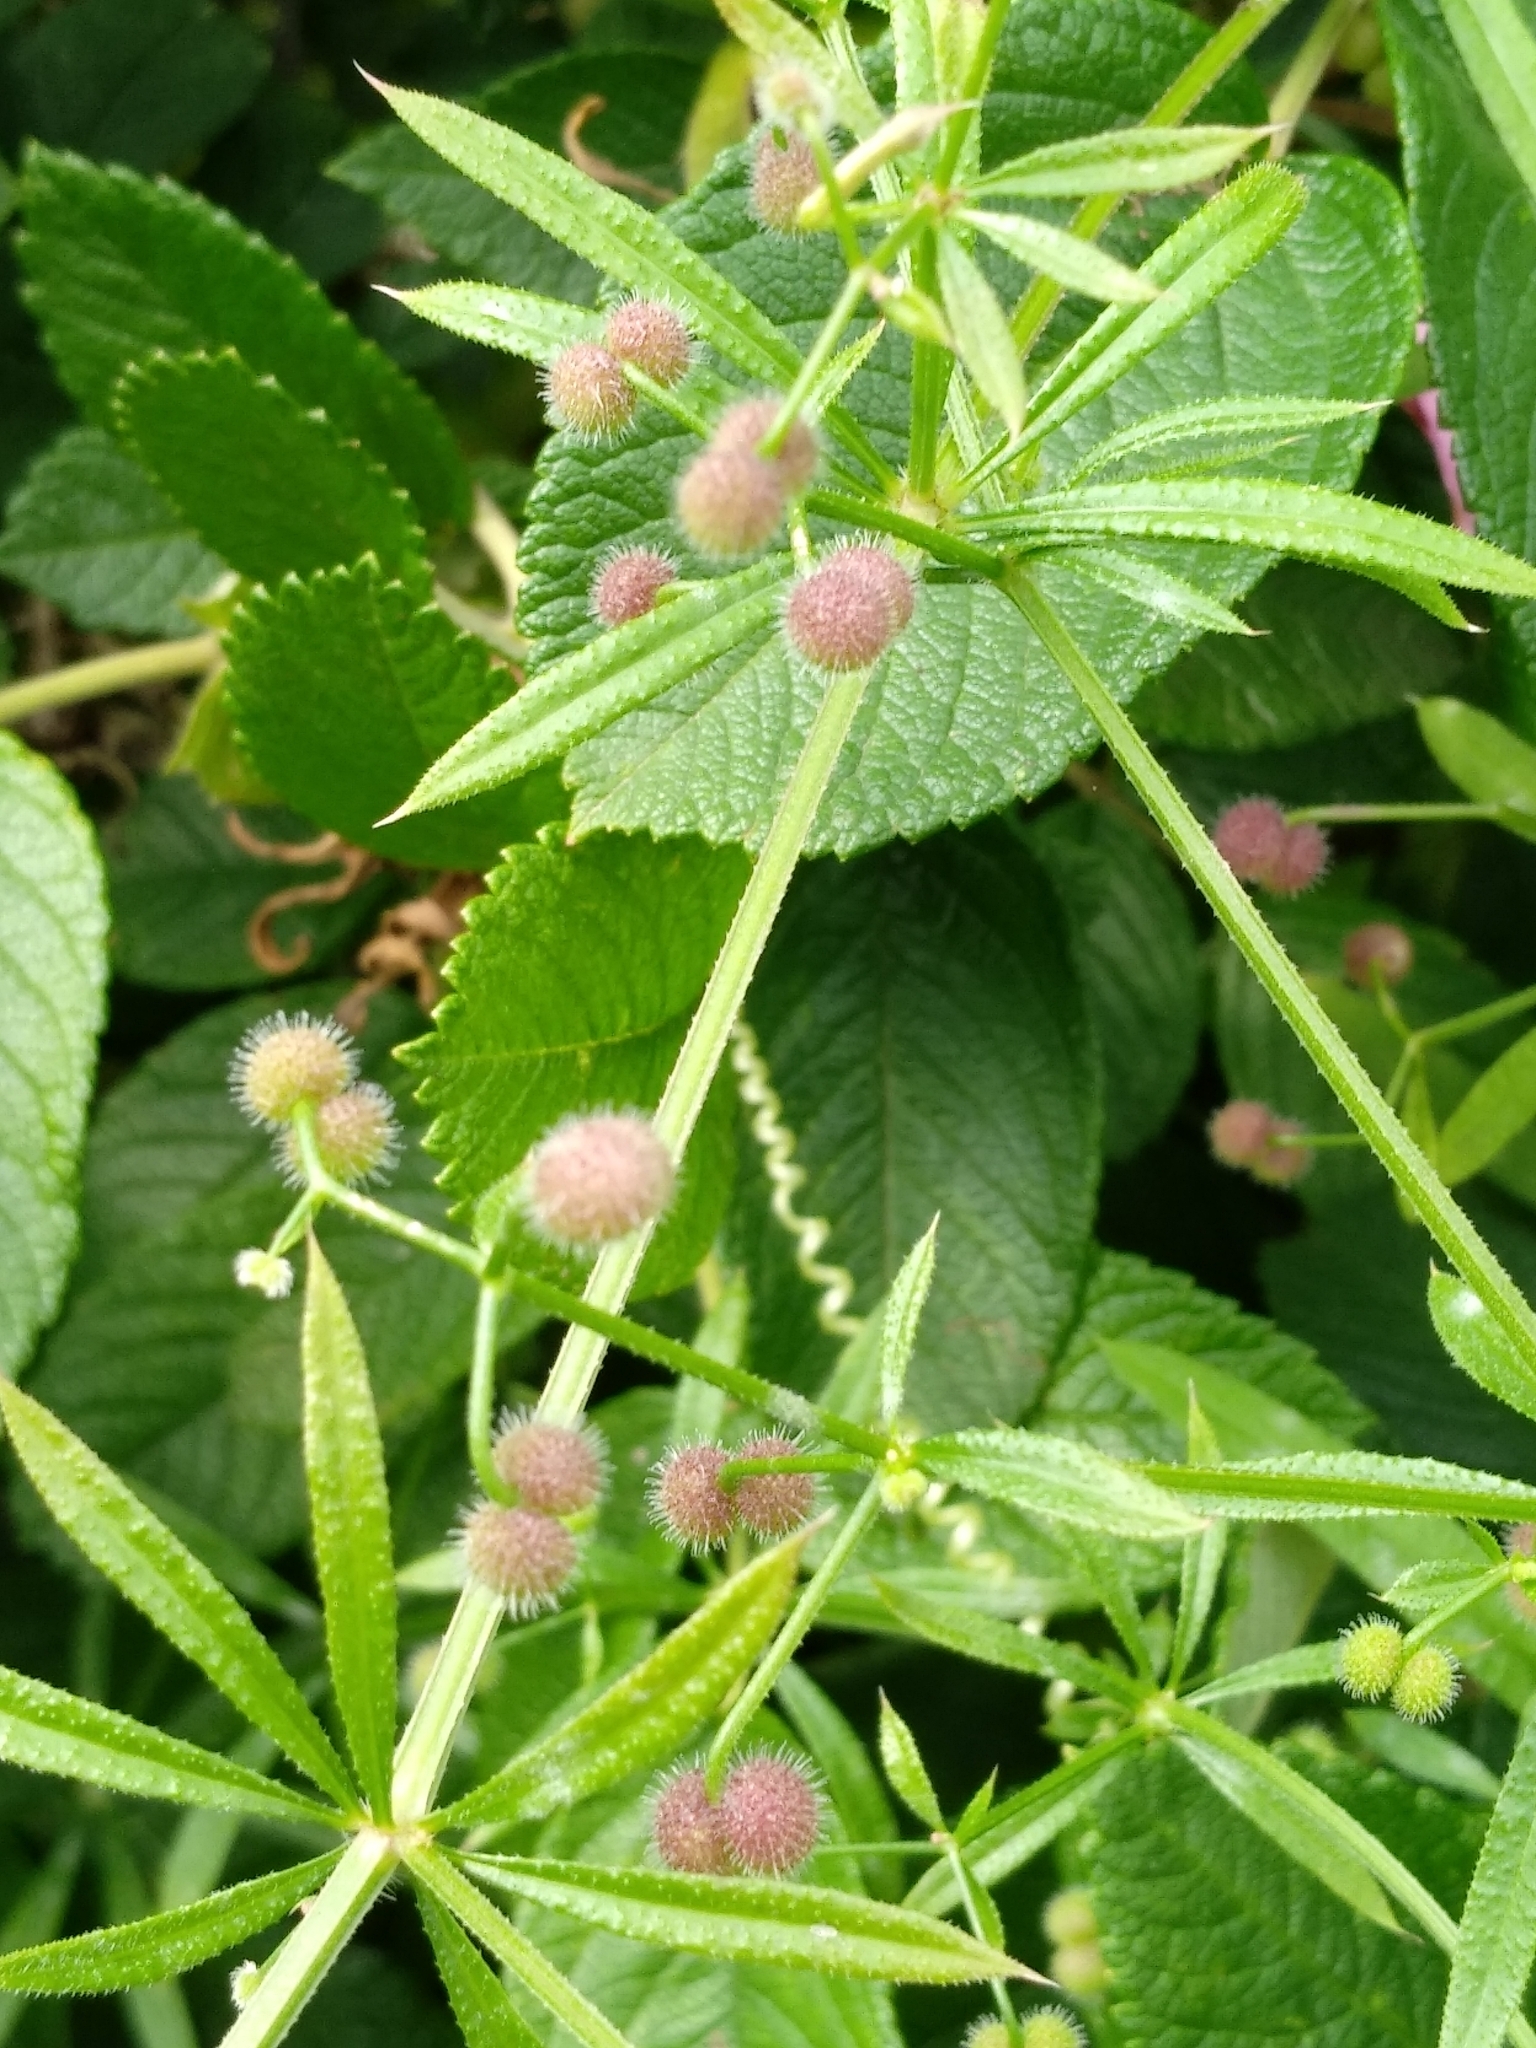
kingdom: Plantae
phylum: Tracheophyta
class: Magnoliopsida
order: Gentianales
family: Rubiaceae
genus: Galium
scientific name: Galium aparine
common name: Cleavers
